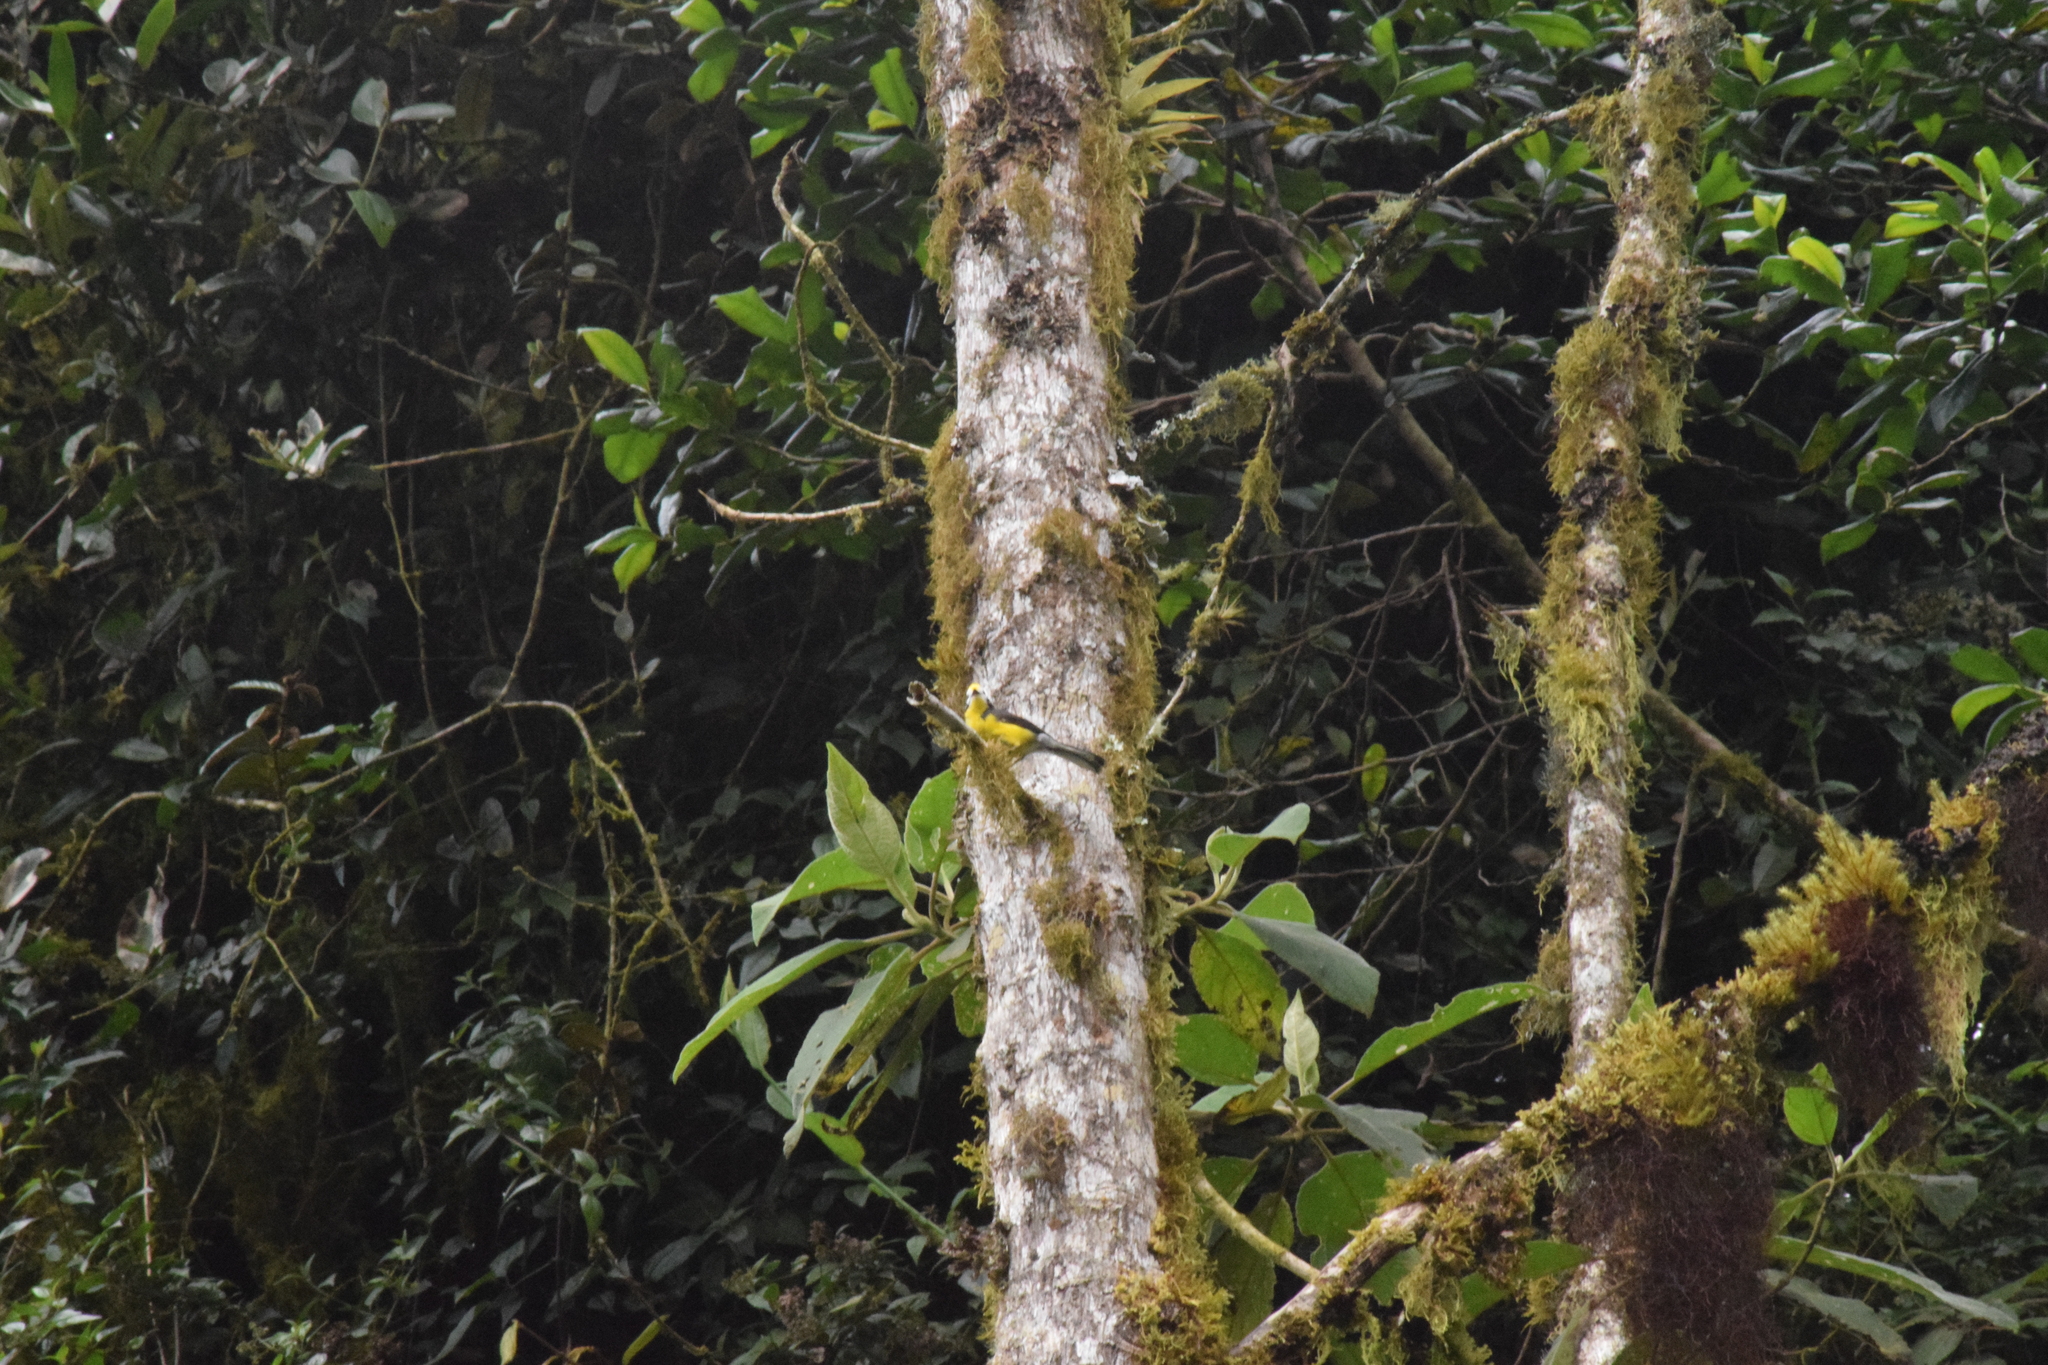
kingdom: Animalia
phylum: Chordata
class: Aves
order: Passeriformes
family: Parulidae
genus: Myioborus
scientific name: Myioborus ornatus
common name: Golden-fronted whitestart
